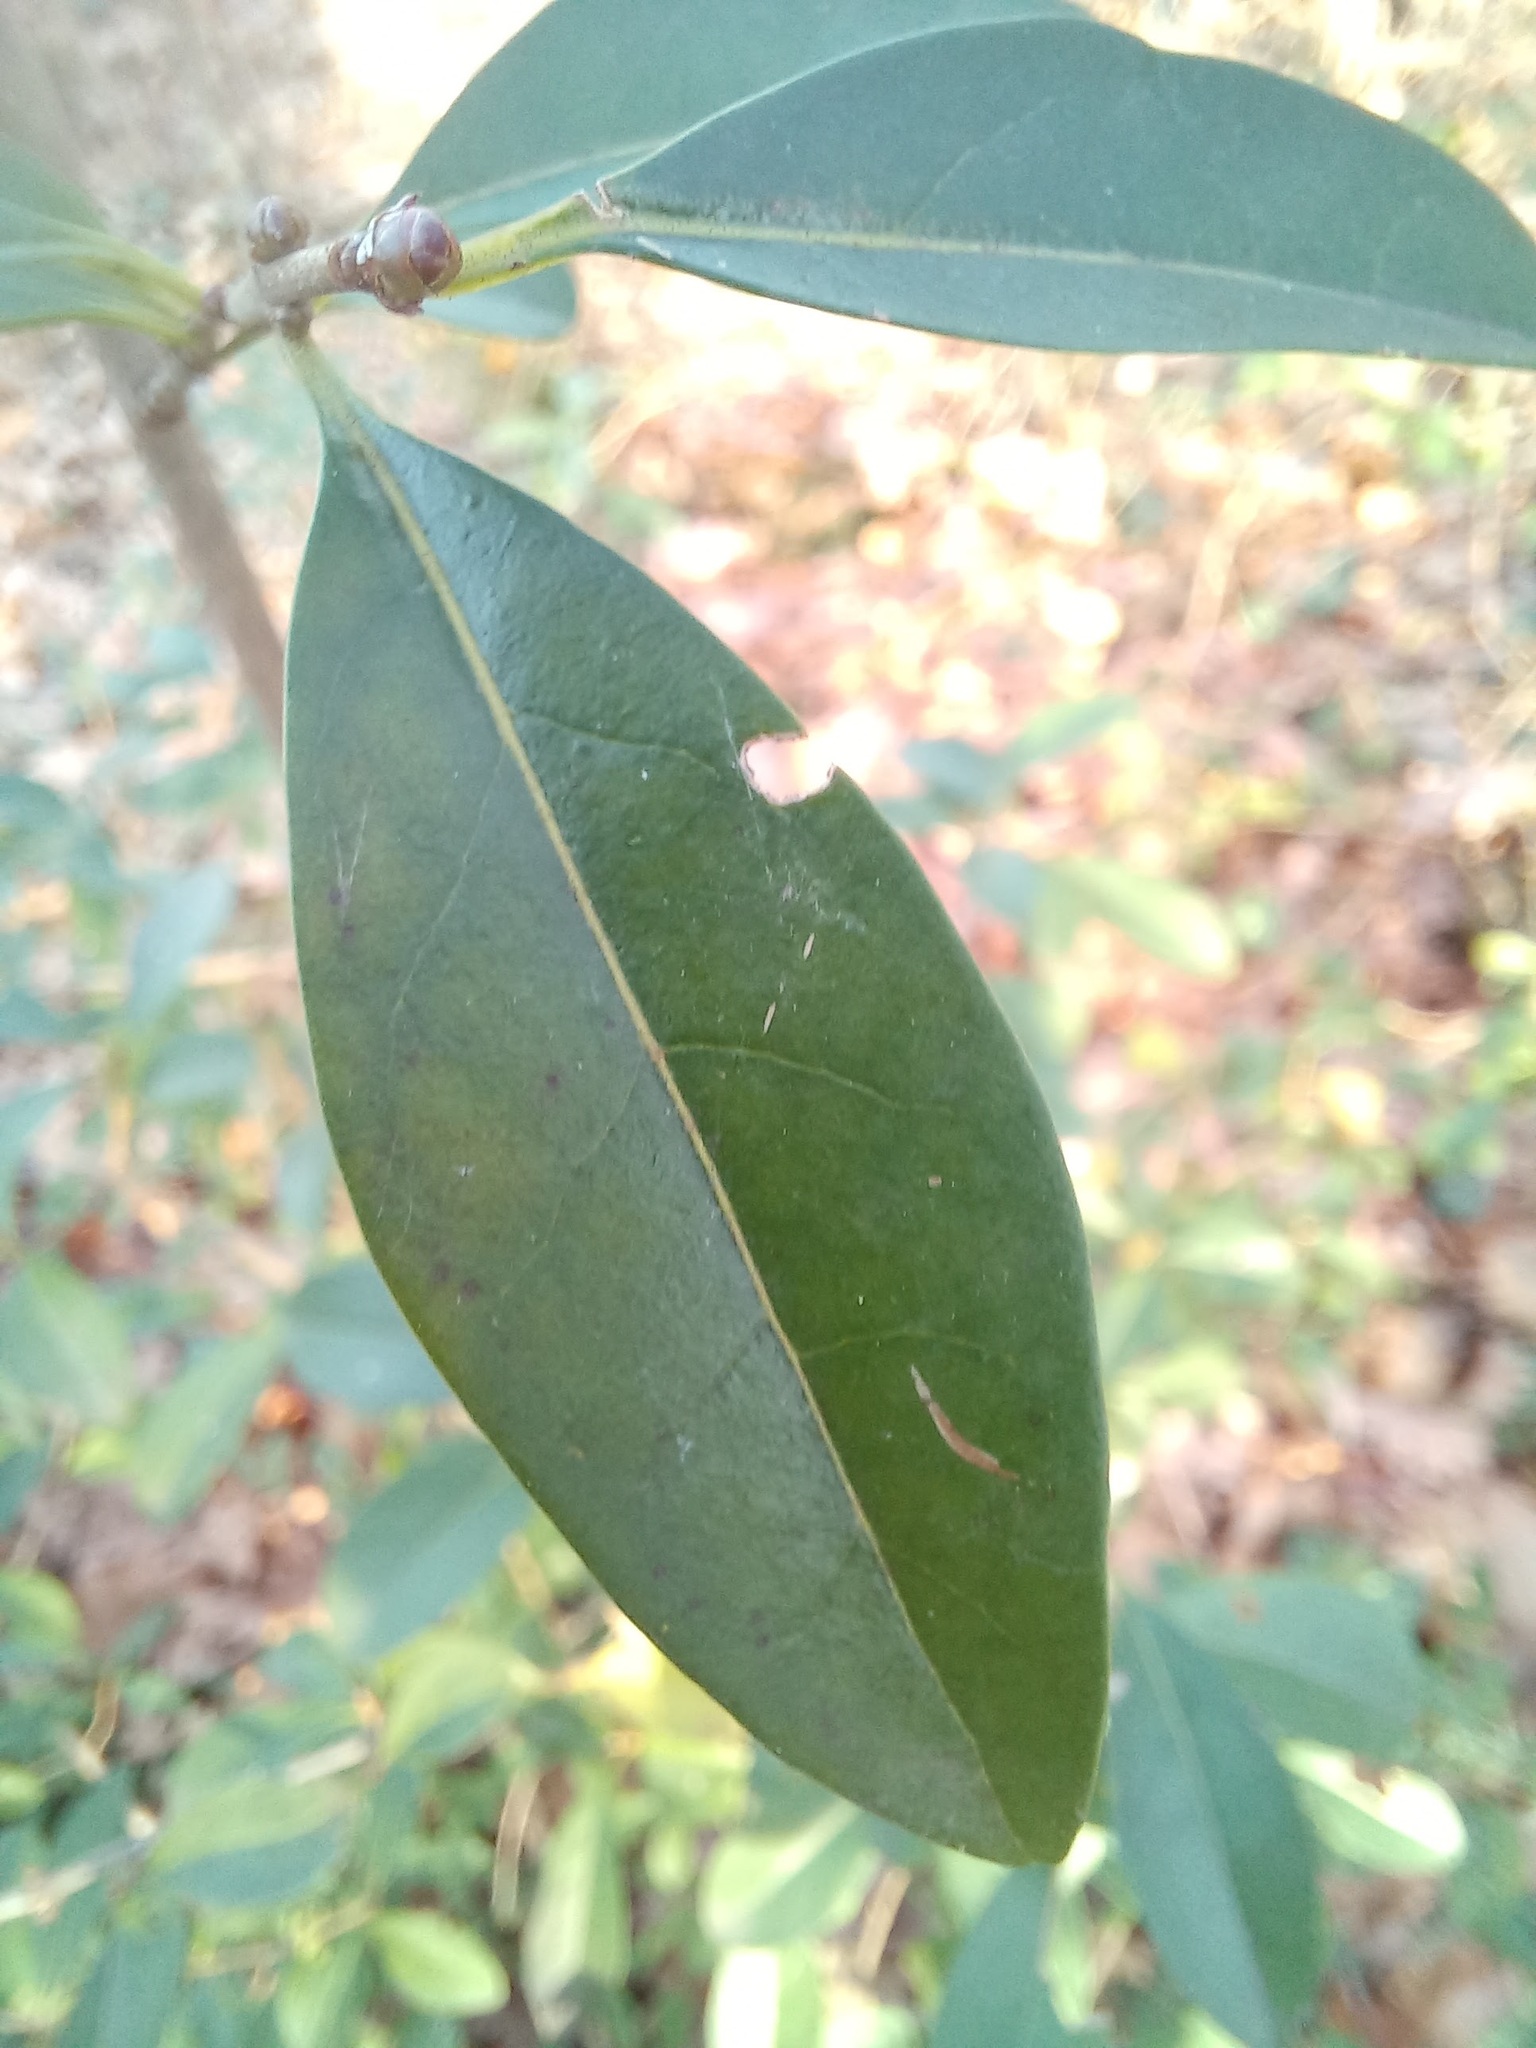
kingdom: Plantae
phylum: Tracheophyta
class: Magnoliopsida
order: Lamiales
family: Oleaceae
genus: Ligustrum
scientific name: Ligustrum vulgare
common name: Wild privet
